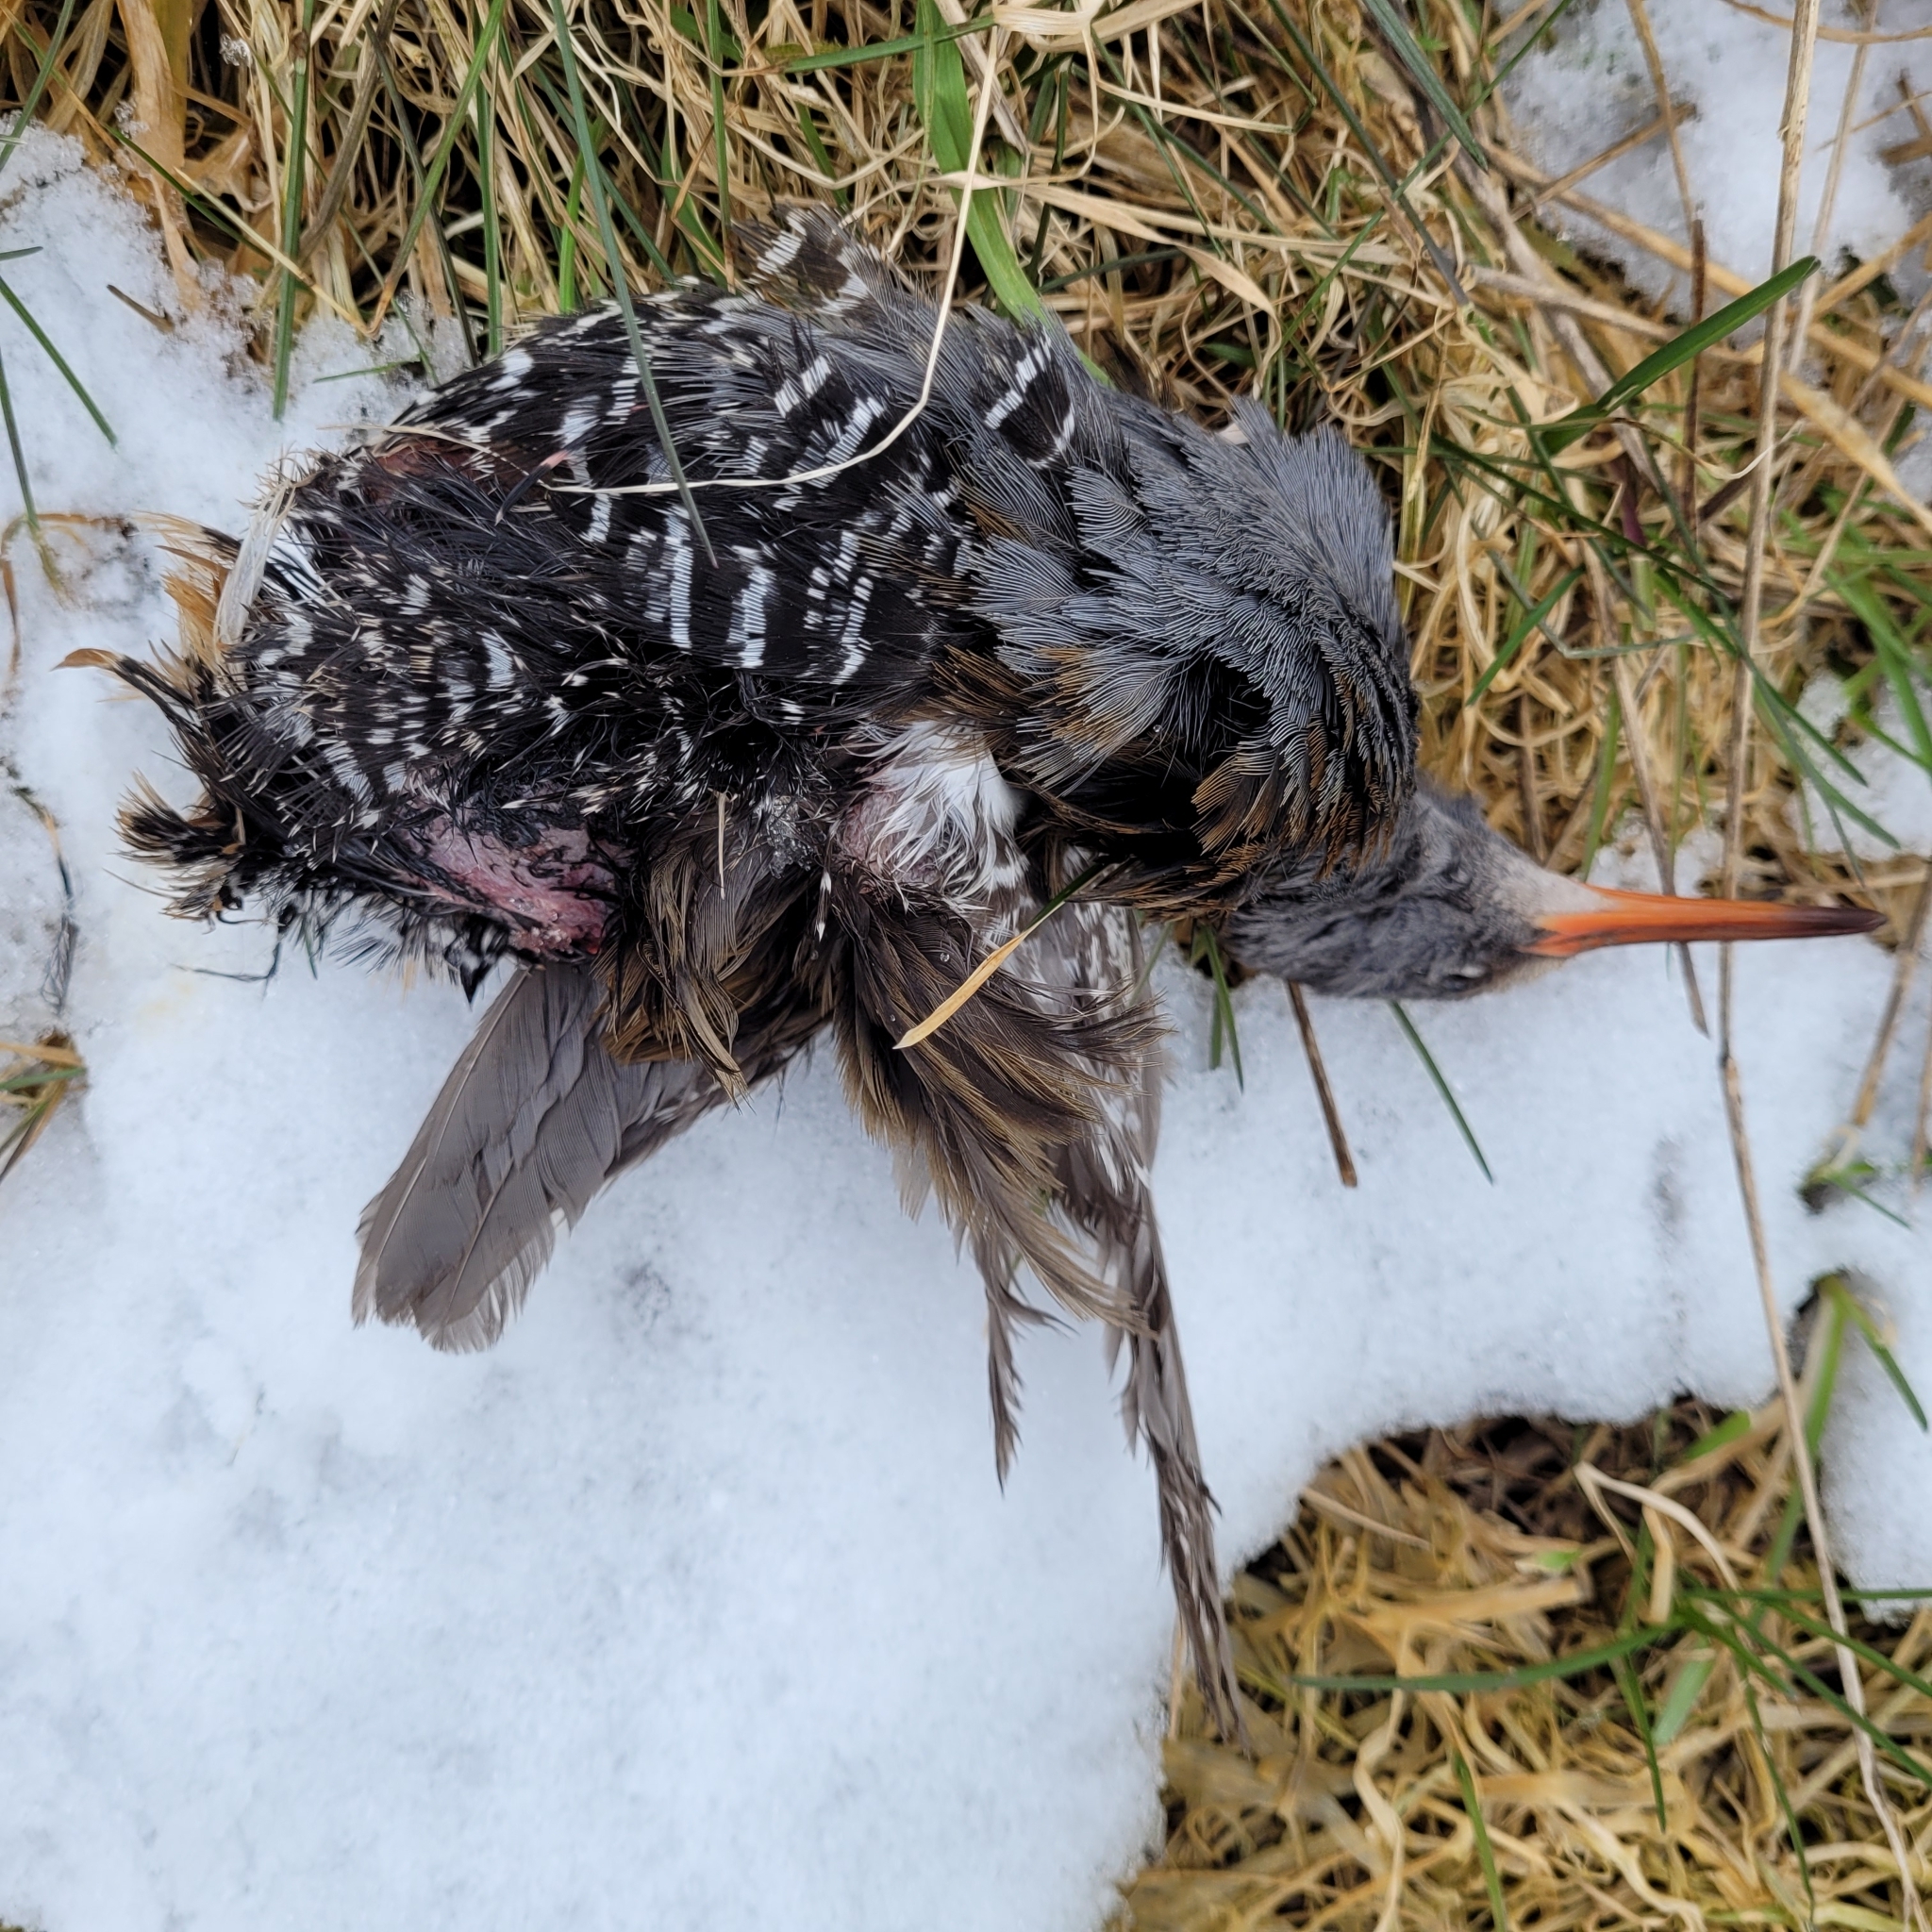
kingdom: Animalia
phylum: Chordata
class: Aves
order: Gruiformes
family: Rallidae
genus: Rallus
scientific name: Rallus aquaticus
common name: Water rail
